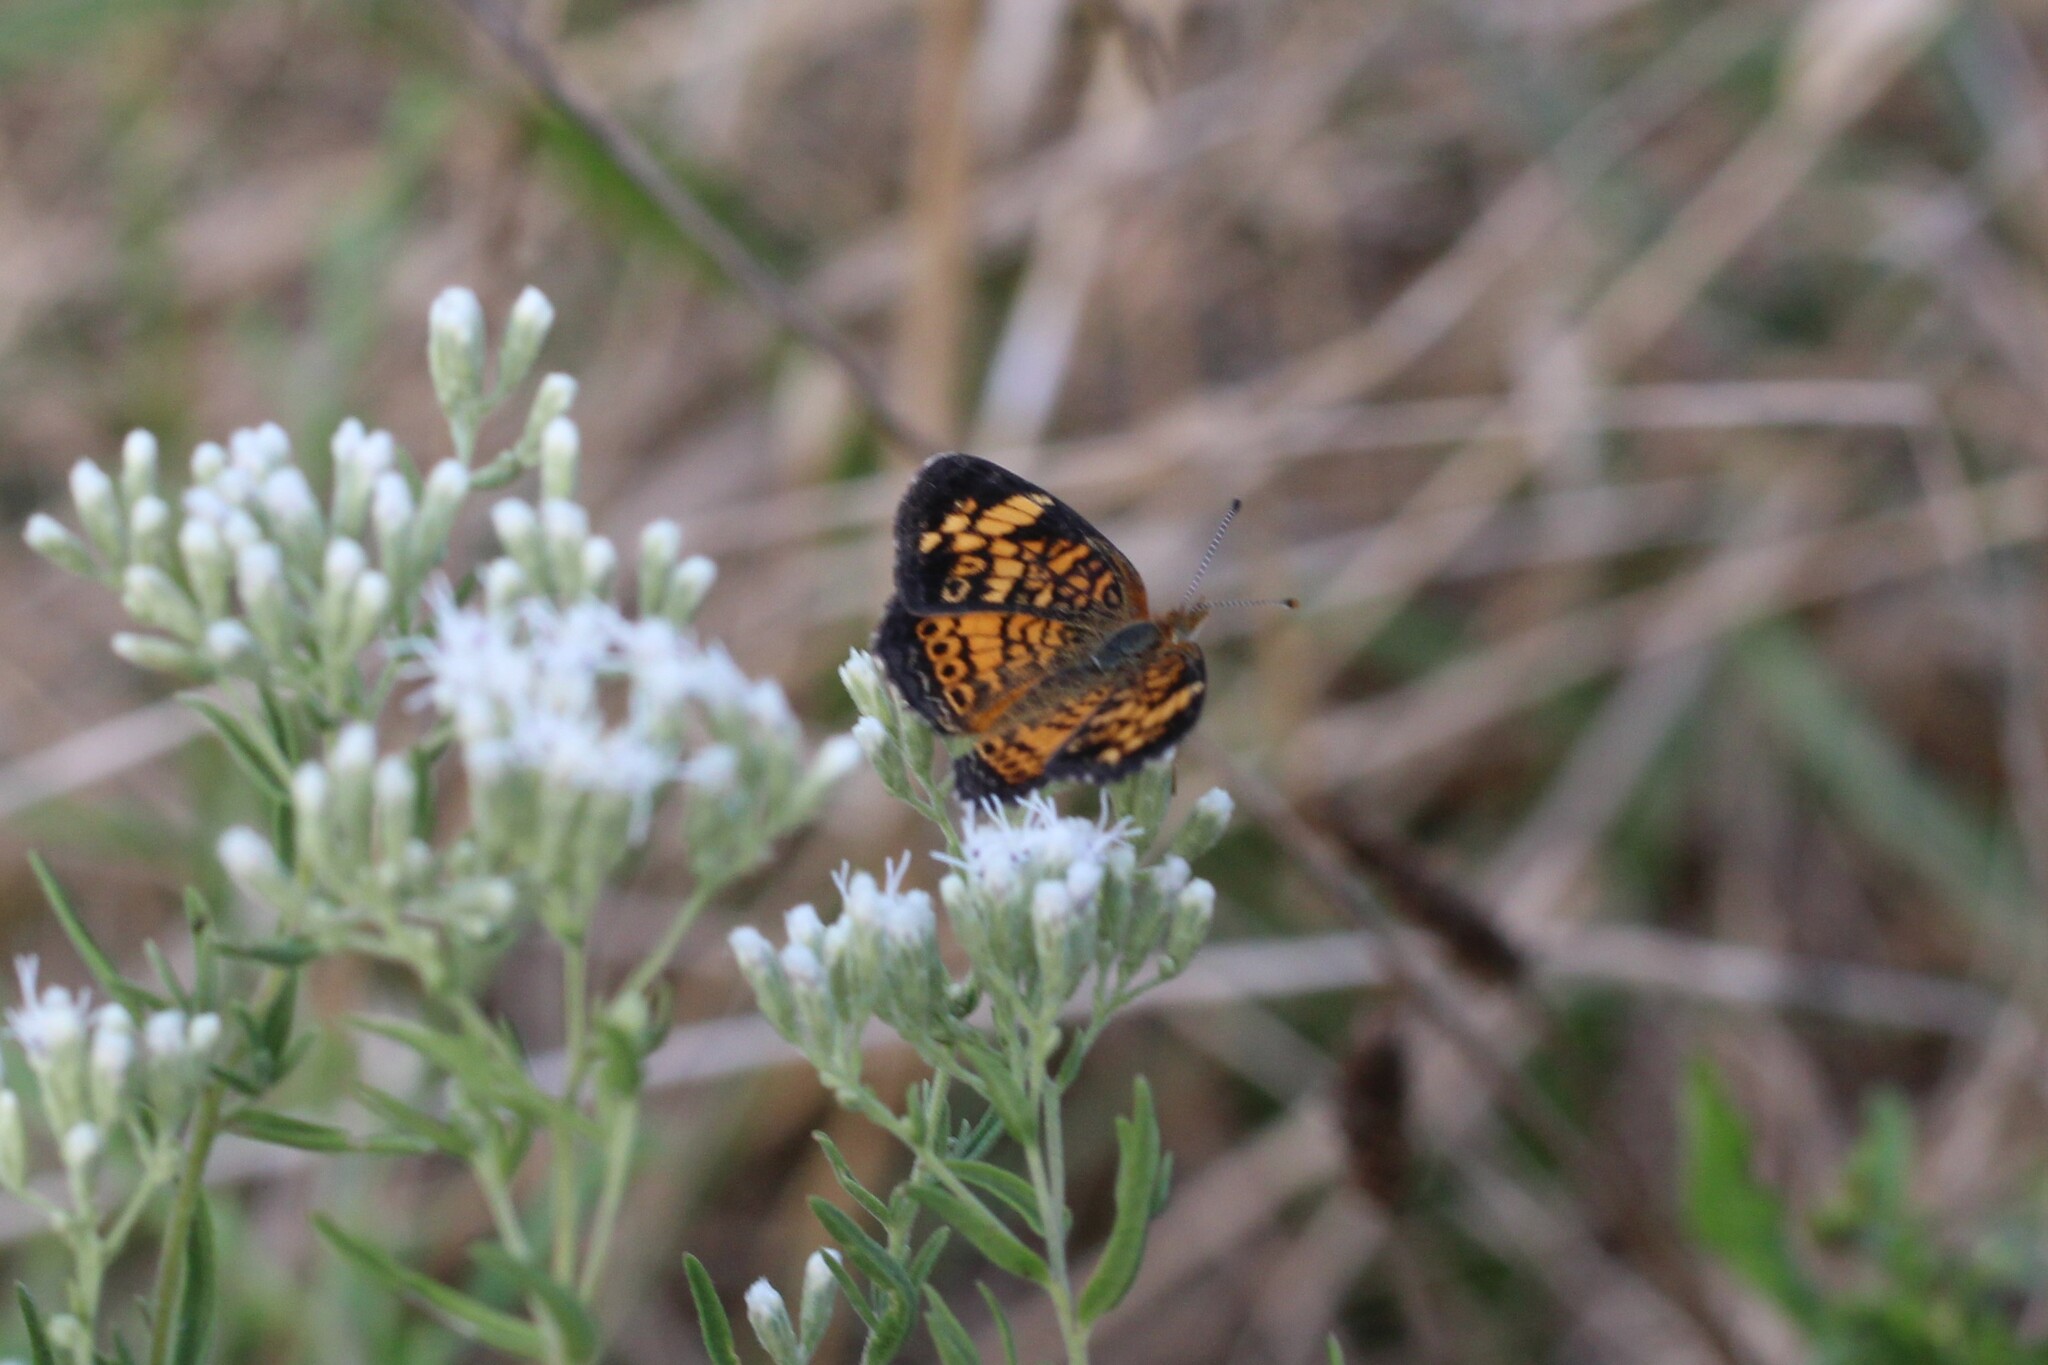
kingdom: Animalia
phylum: Arthropoda
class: Insecta
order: Lepidoptera
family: Nymphalidae
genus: Phyciodes
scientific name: Phyciodes tharos
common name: Pearl crescent
